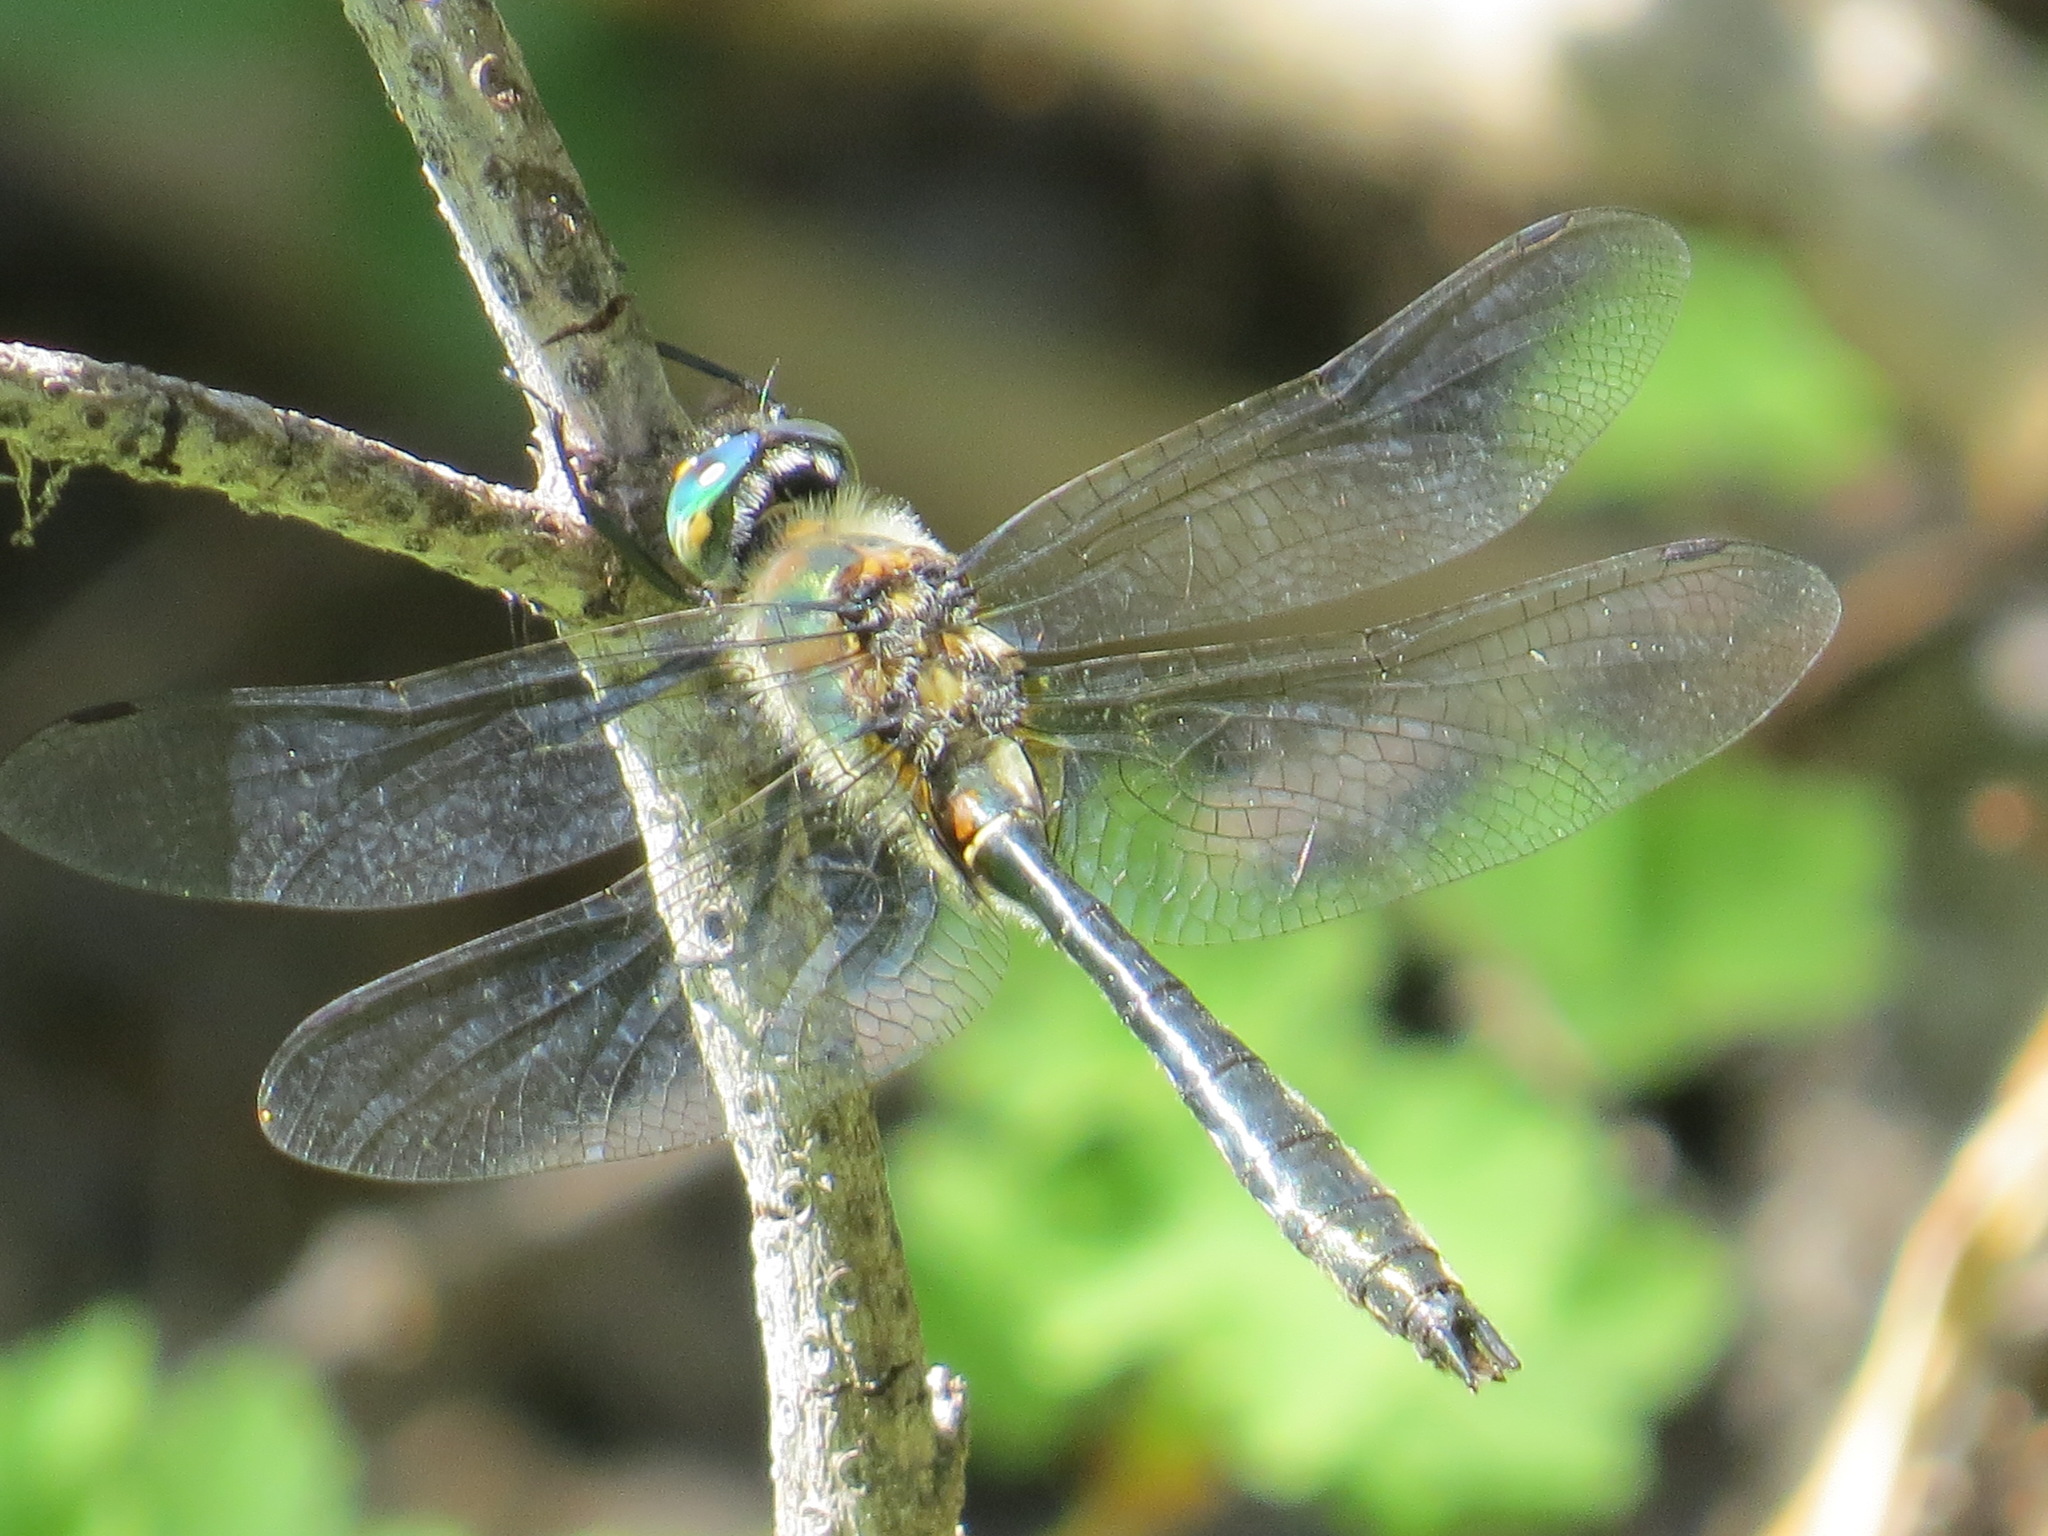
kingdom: Animalia
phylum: Arthropoda
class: Insecta
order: Odonata
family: Corduliidae
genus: Cordulia
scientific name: Cordulia shurtleffii
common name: American emerald
